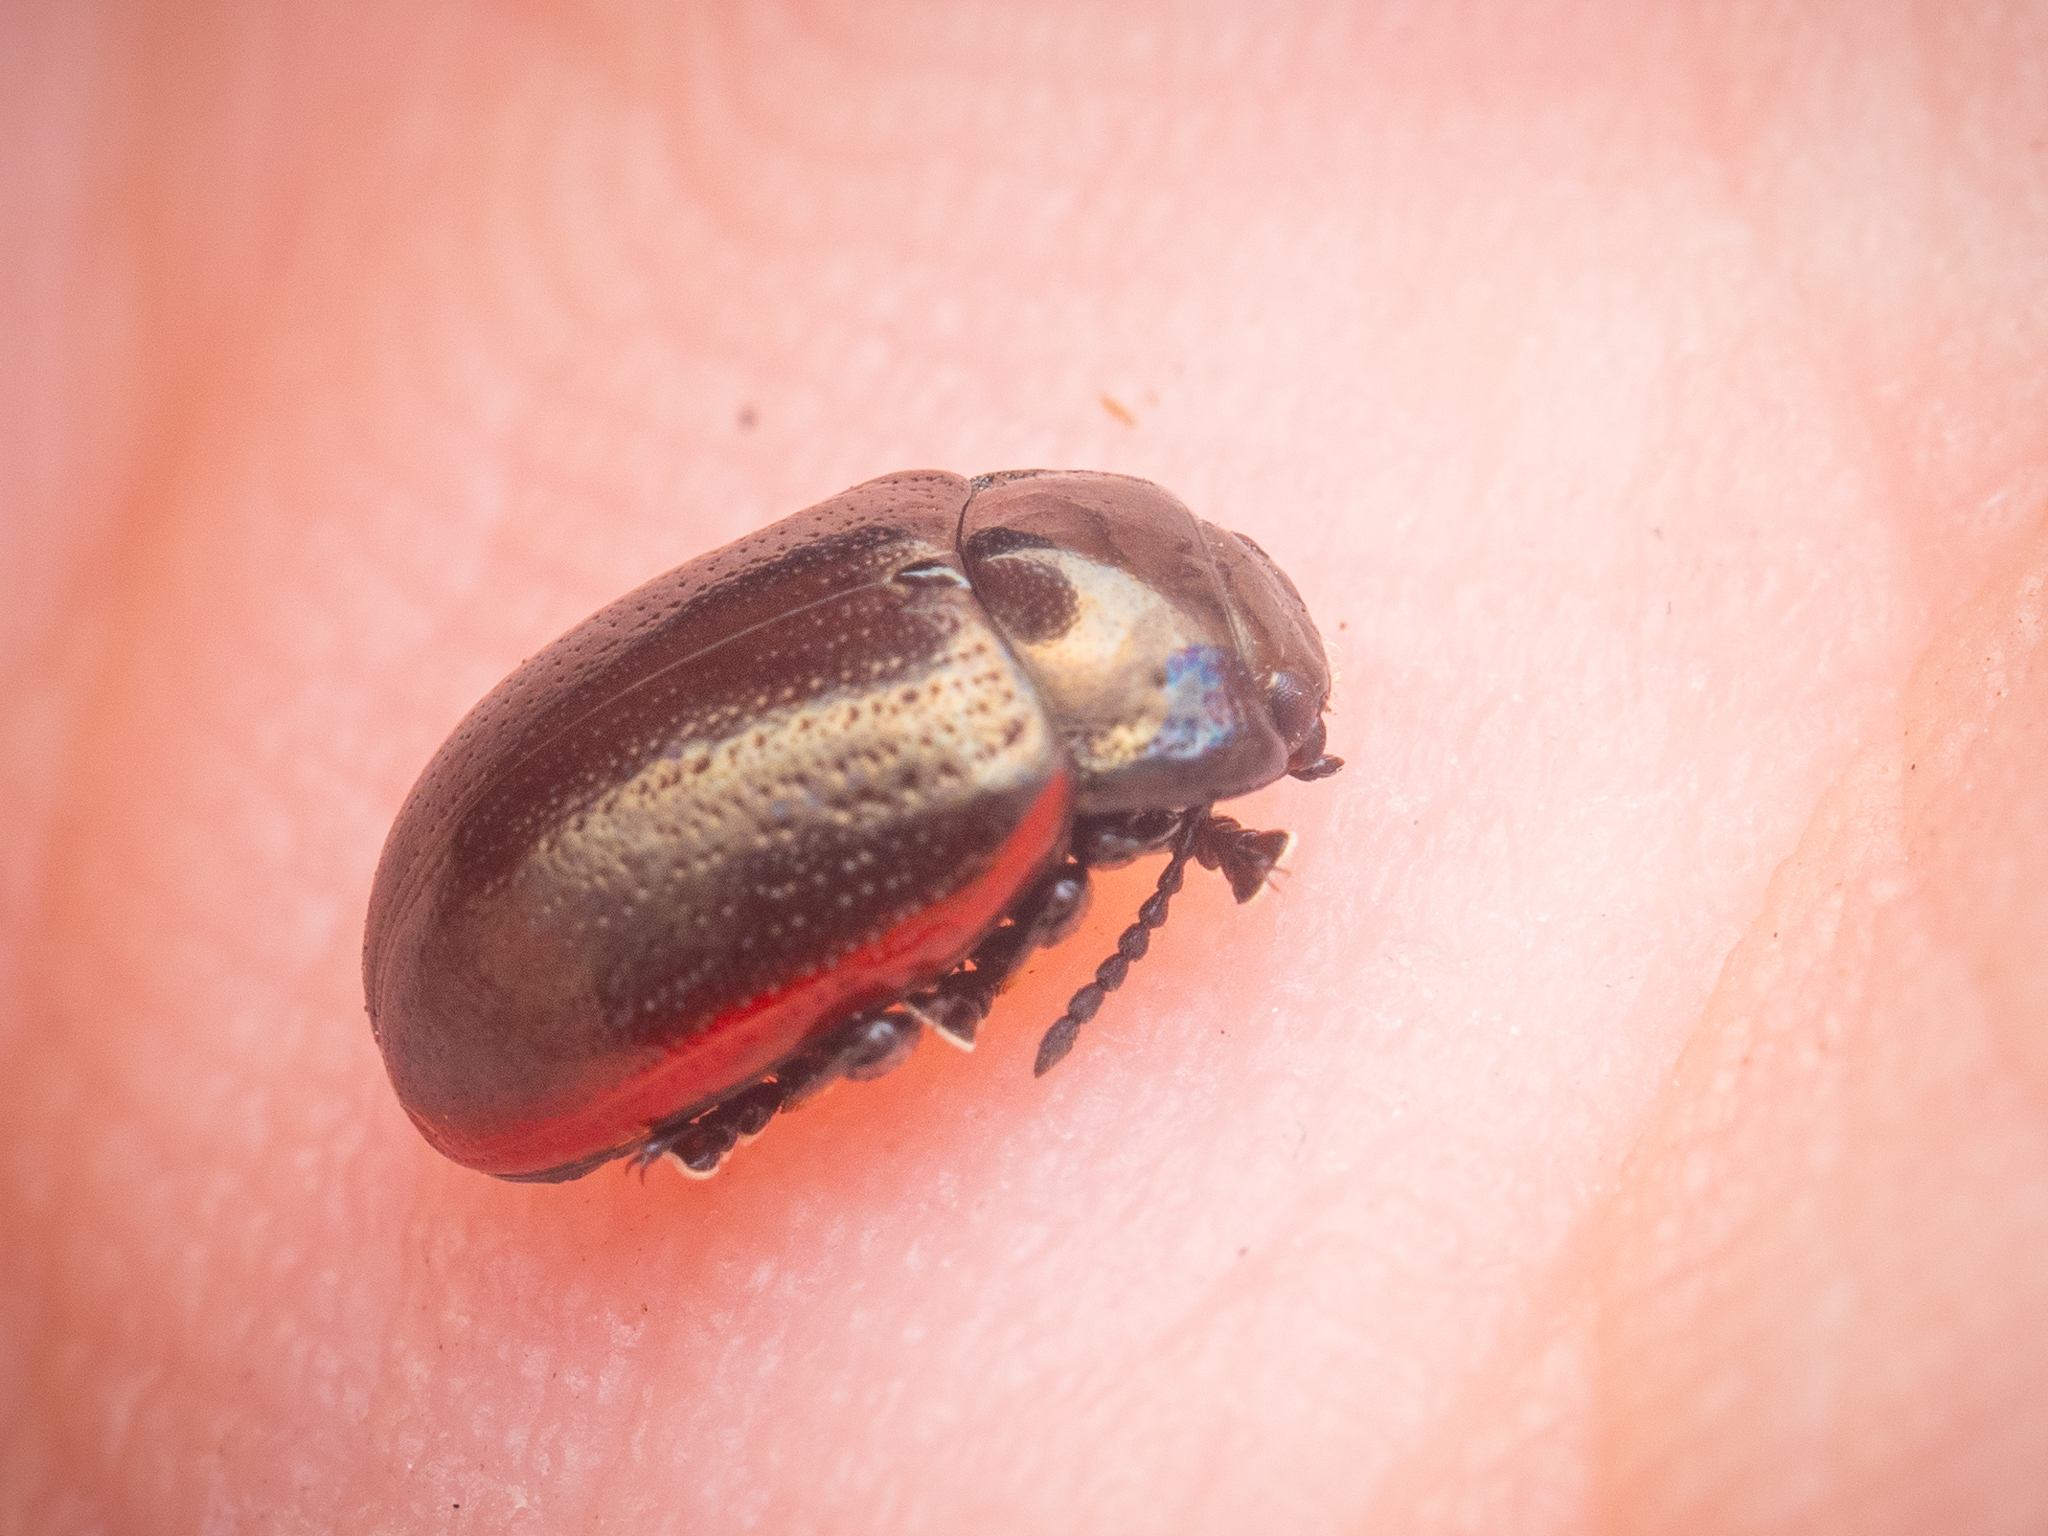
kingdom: Animalia
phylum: Arthropoda
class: Insecta
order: Coleoptera
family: Chrysomelidae
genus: Chrysolina
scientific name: Chrysolina marginata
